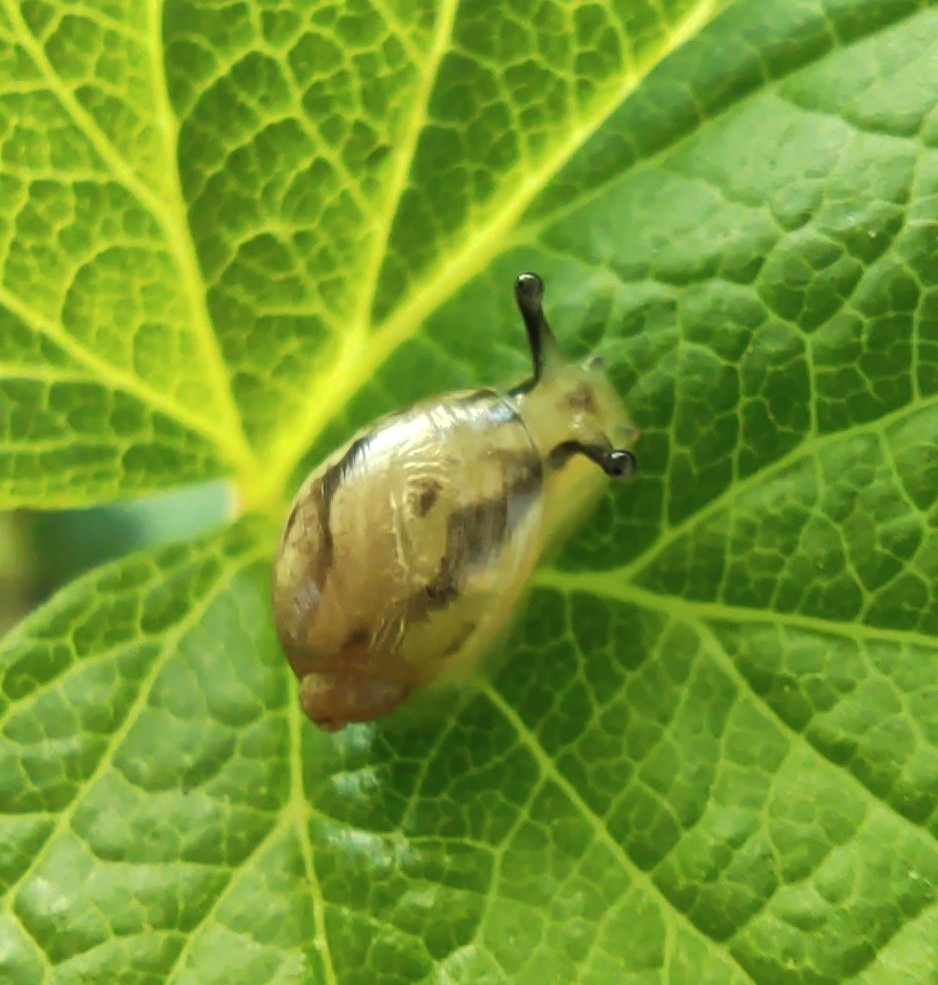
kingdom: Animalia
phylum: Mollusca
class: Gastropoda
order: Stylommatophora
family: Succineidae
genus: Succinea
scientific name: Succinea putris
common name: European ambersnail
